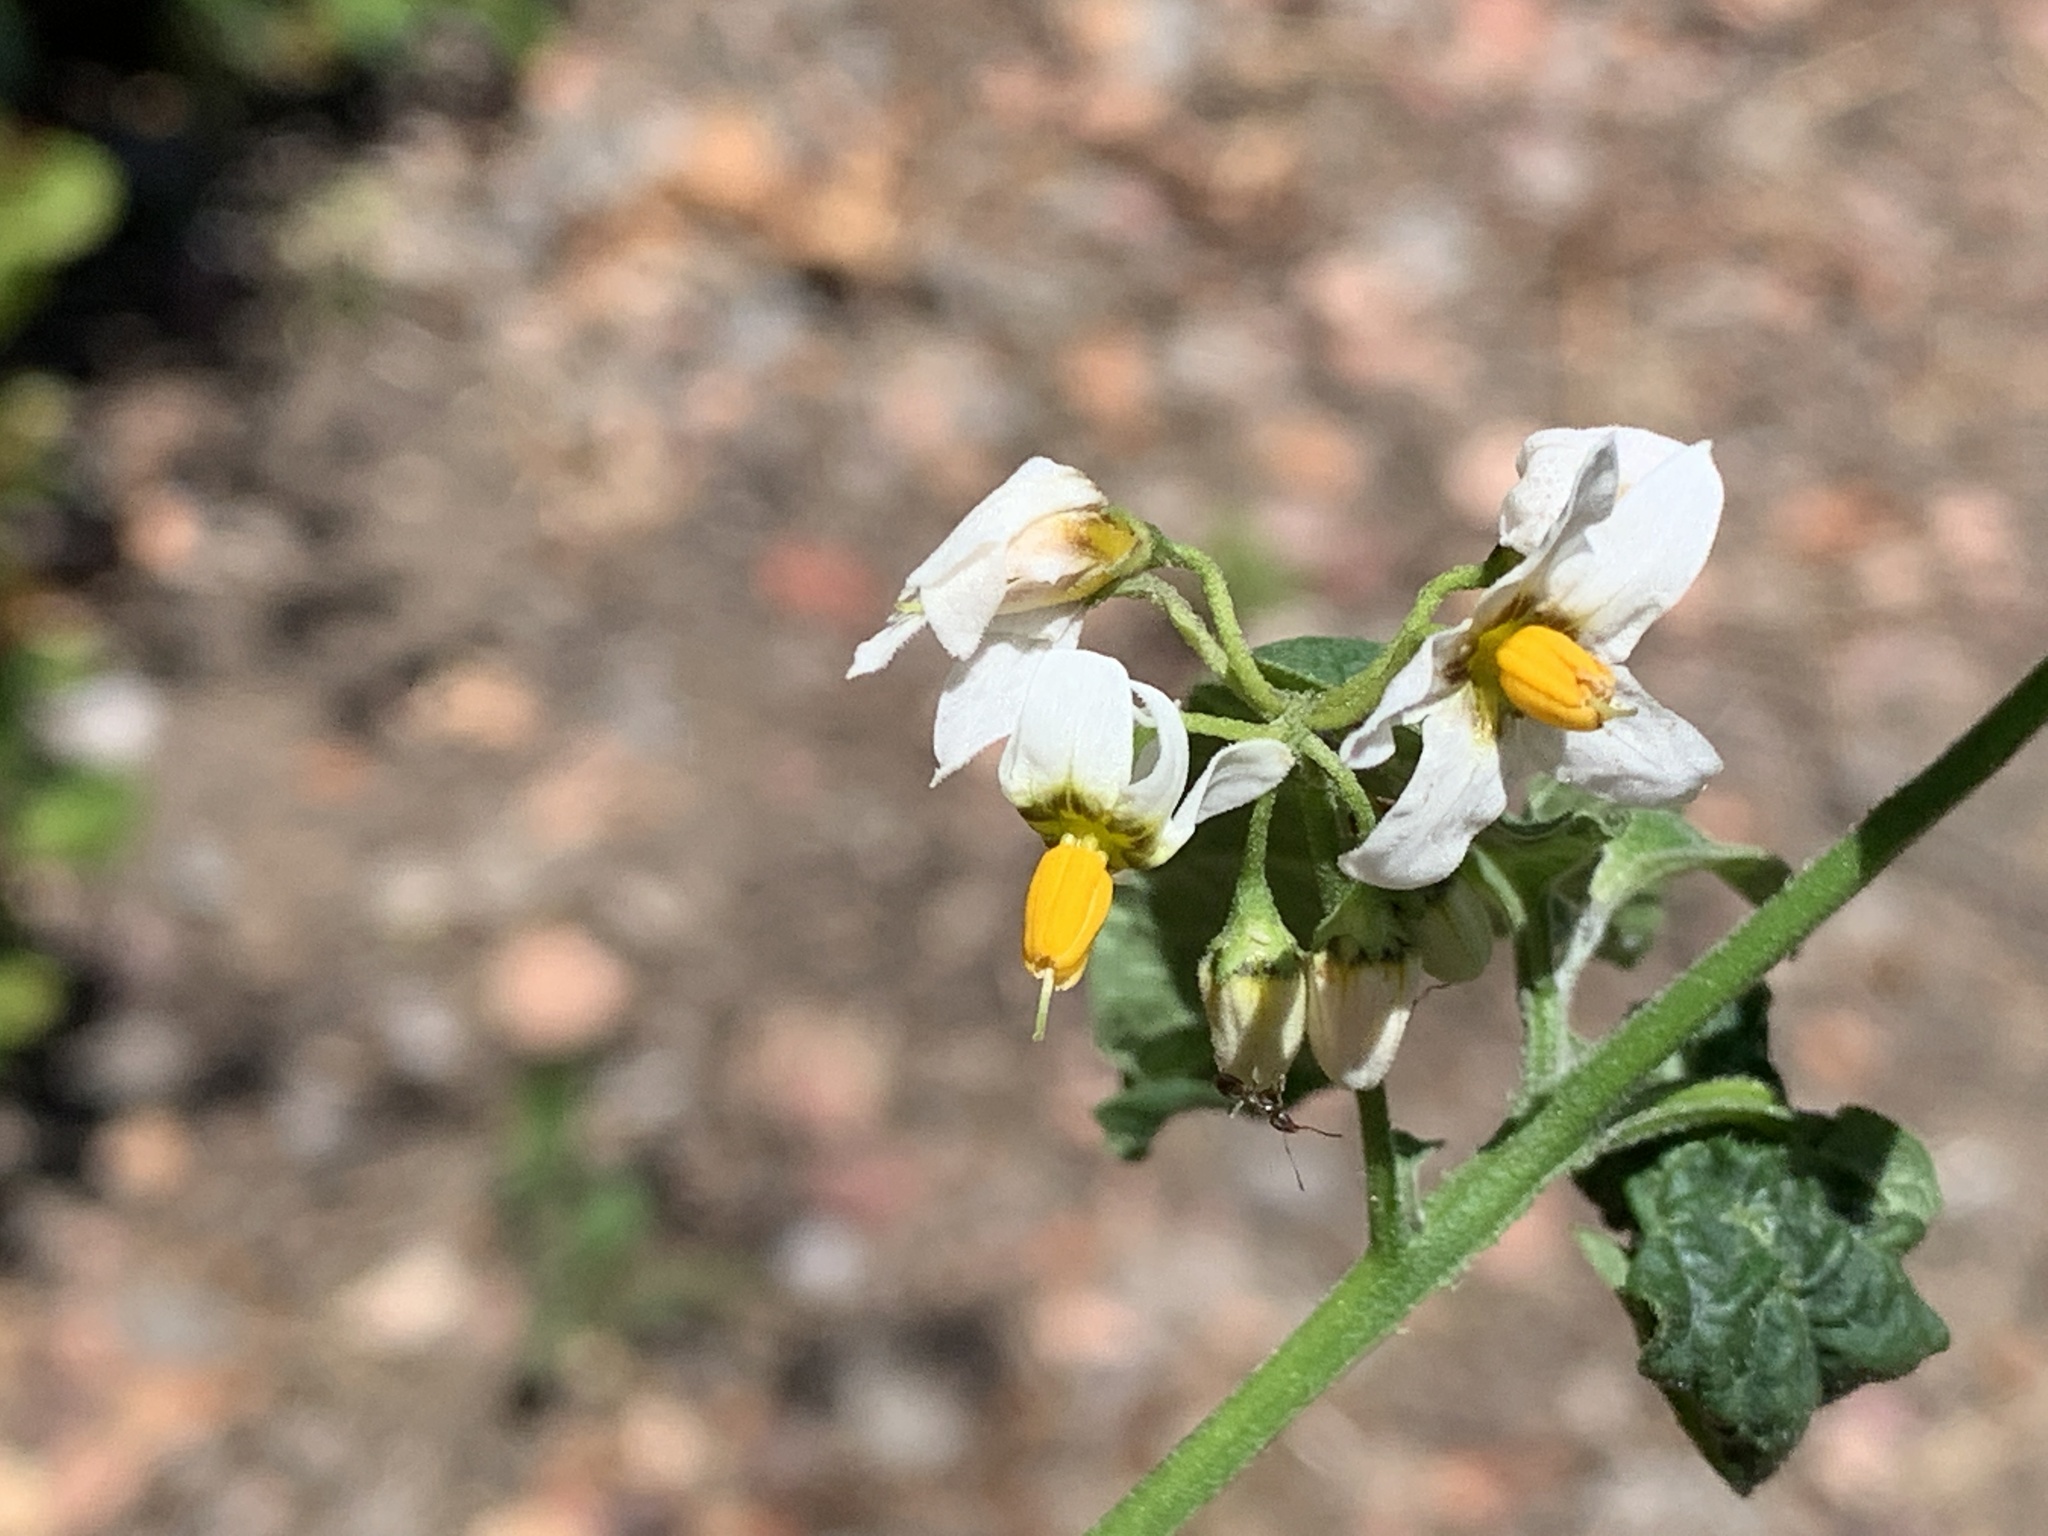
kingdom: Plantae
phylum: Tracheophyta
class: Magnoliopsida
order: Solanales
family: Solanaceae
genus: Solanum
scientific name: Solanum douglasii
